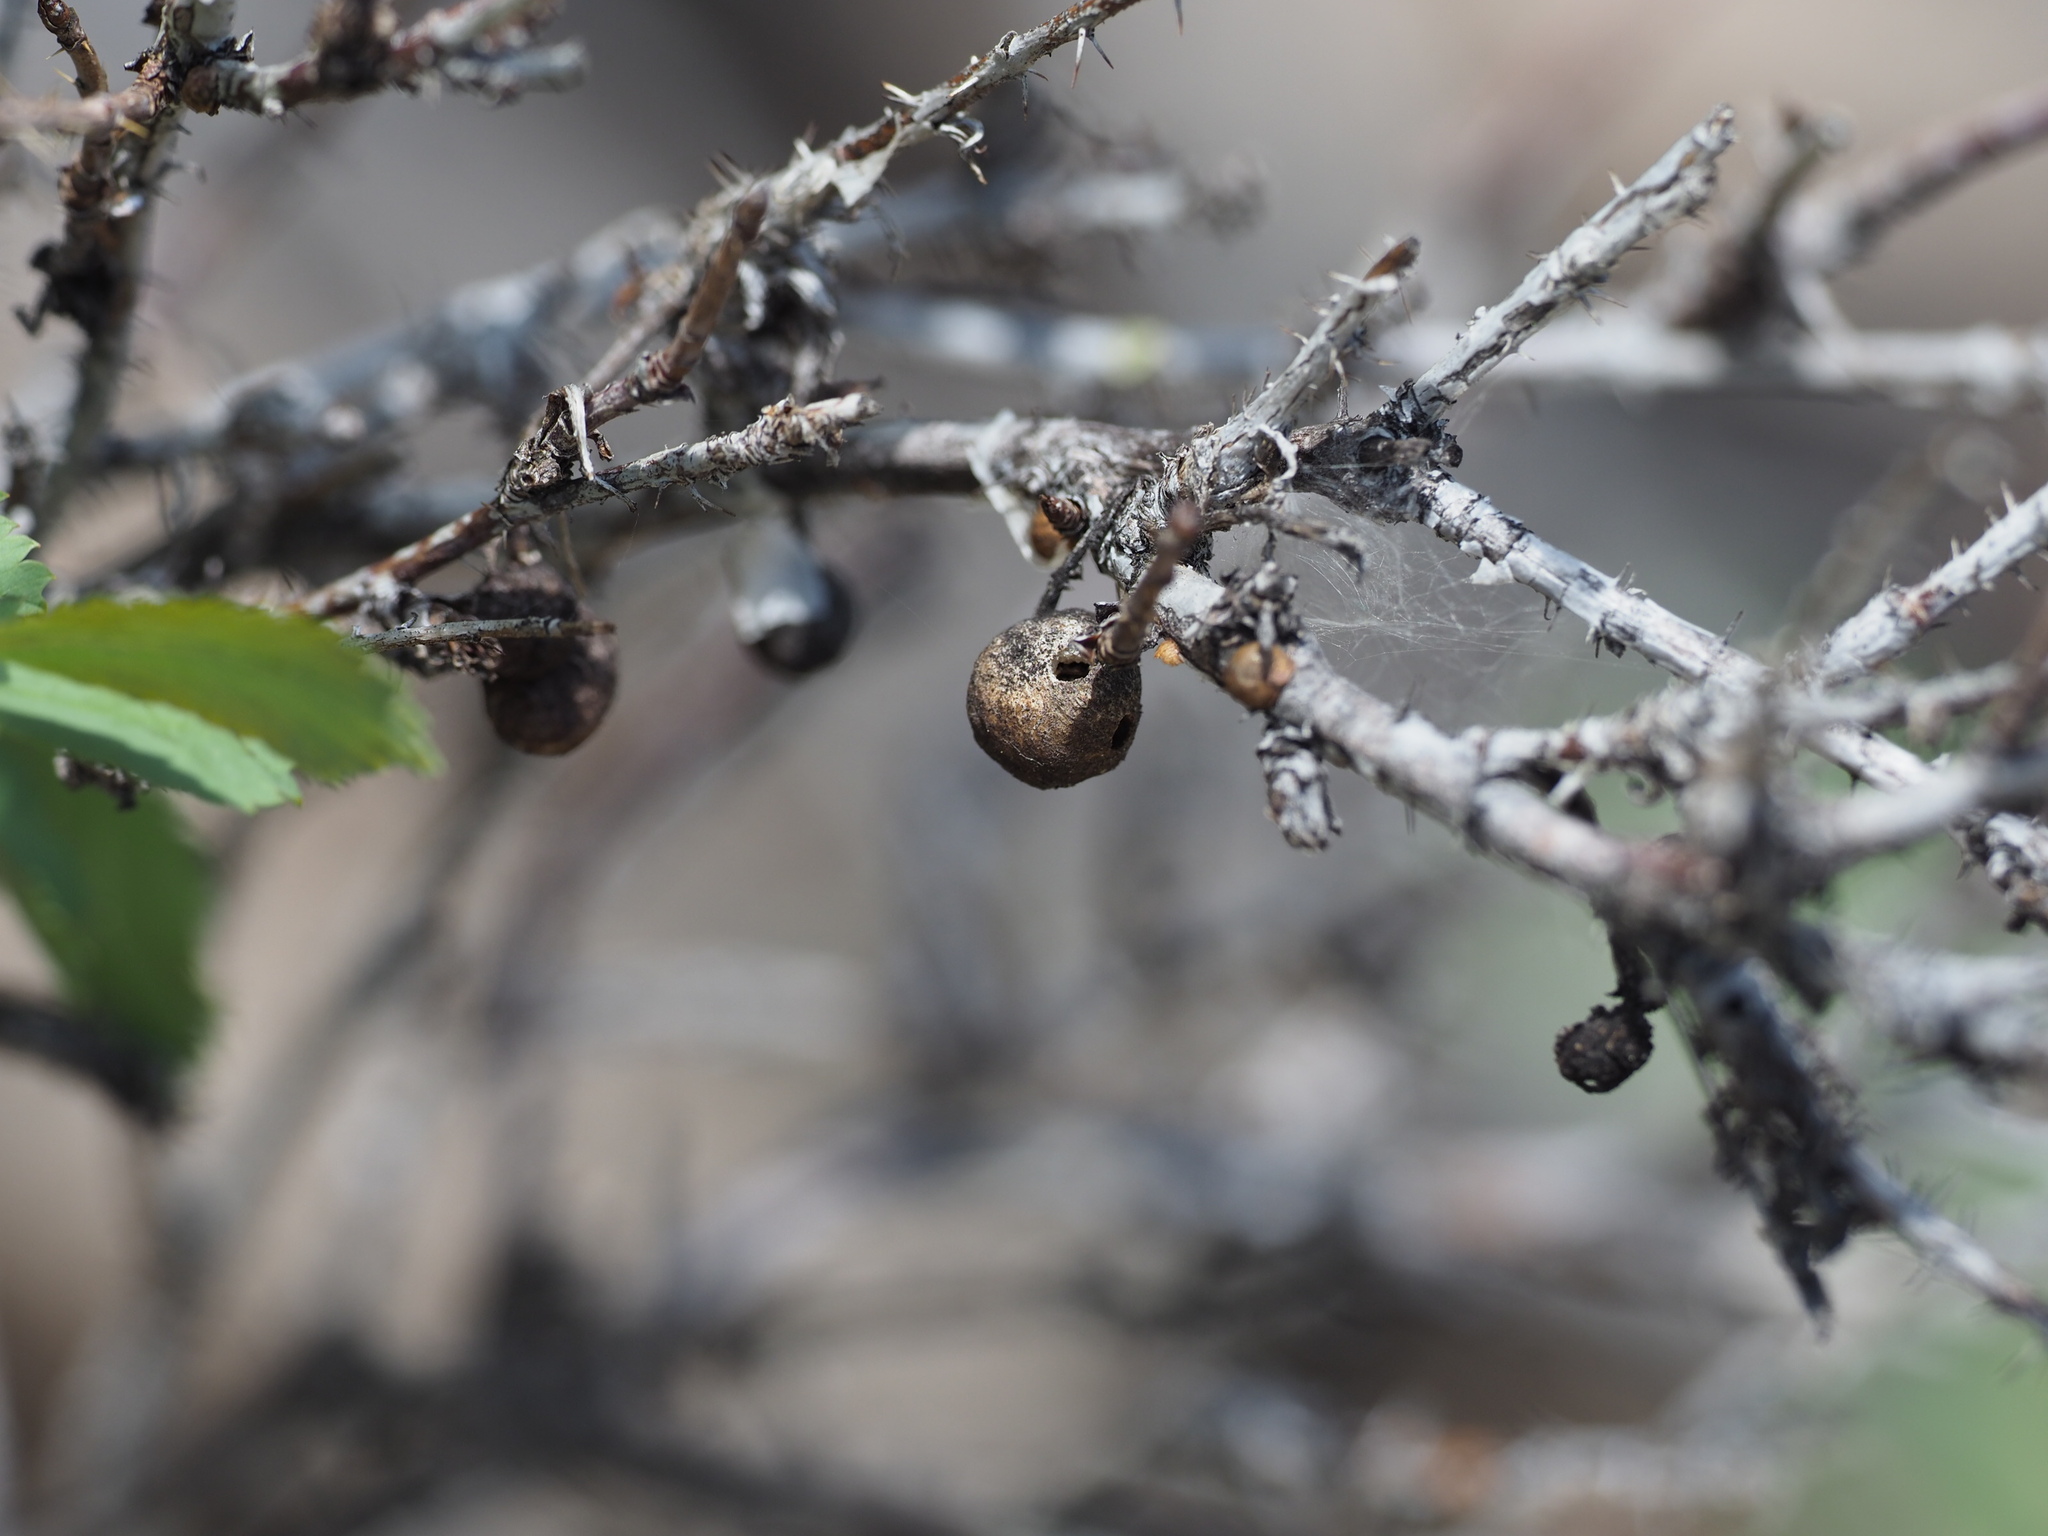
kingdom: Animalia
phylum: Arthropoda
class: Insecta
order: Hymenoptera
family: Cynipidae
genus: Diplolepis
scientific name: Diplolepis variabilis
